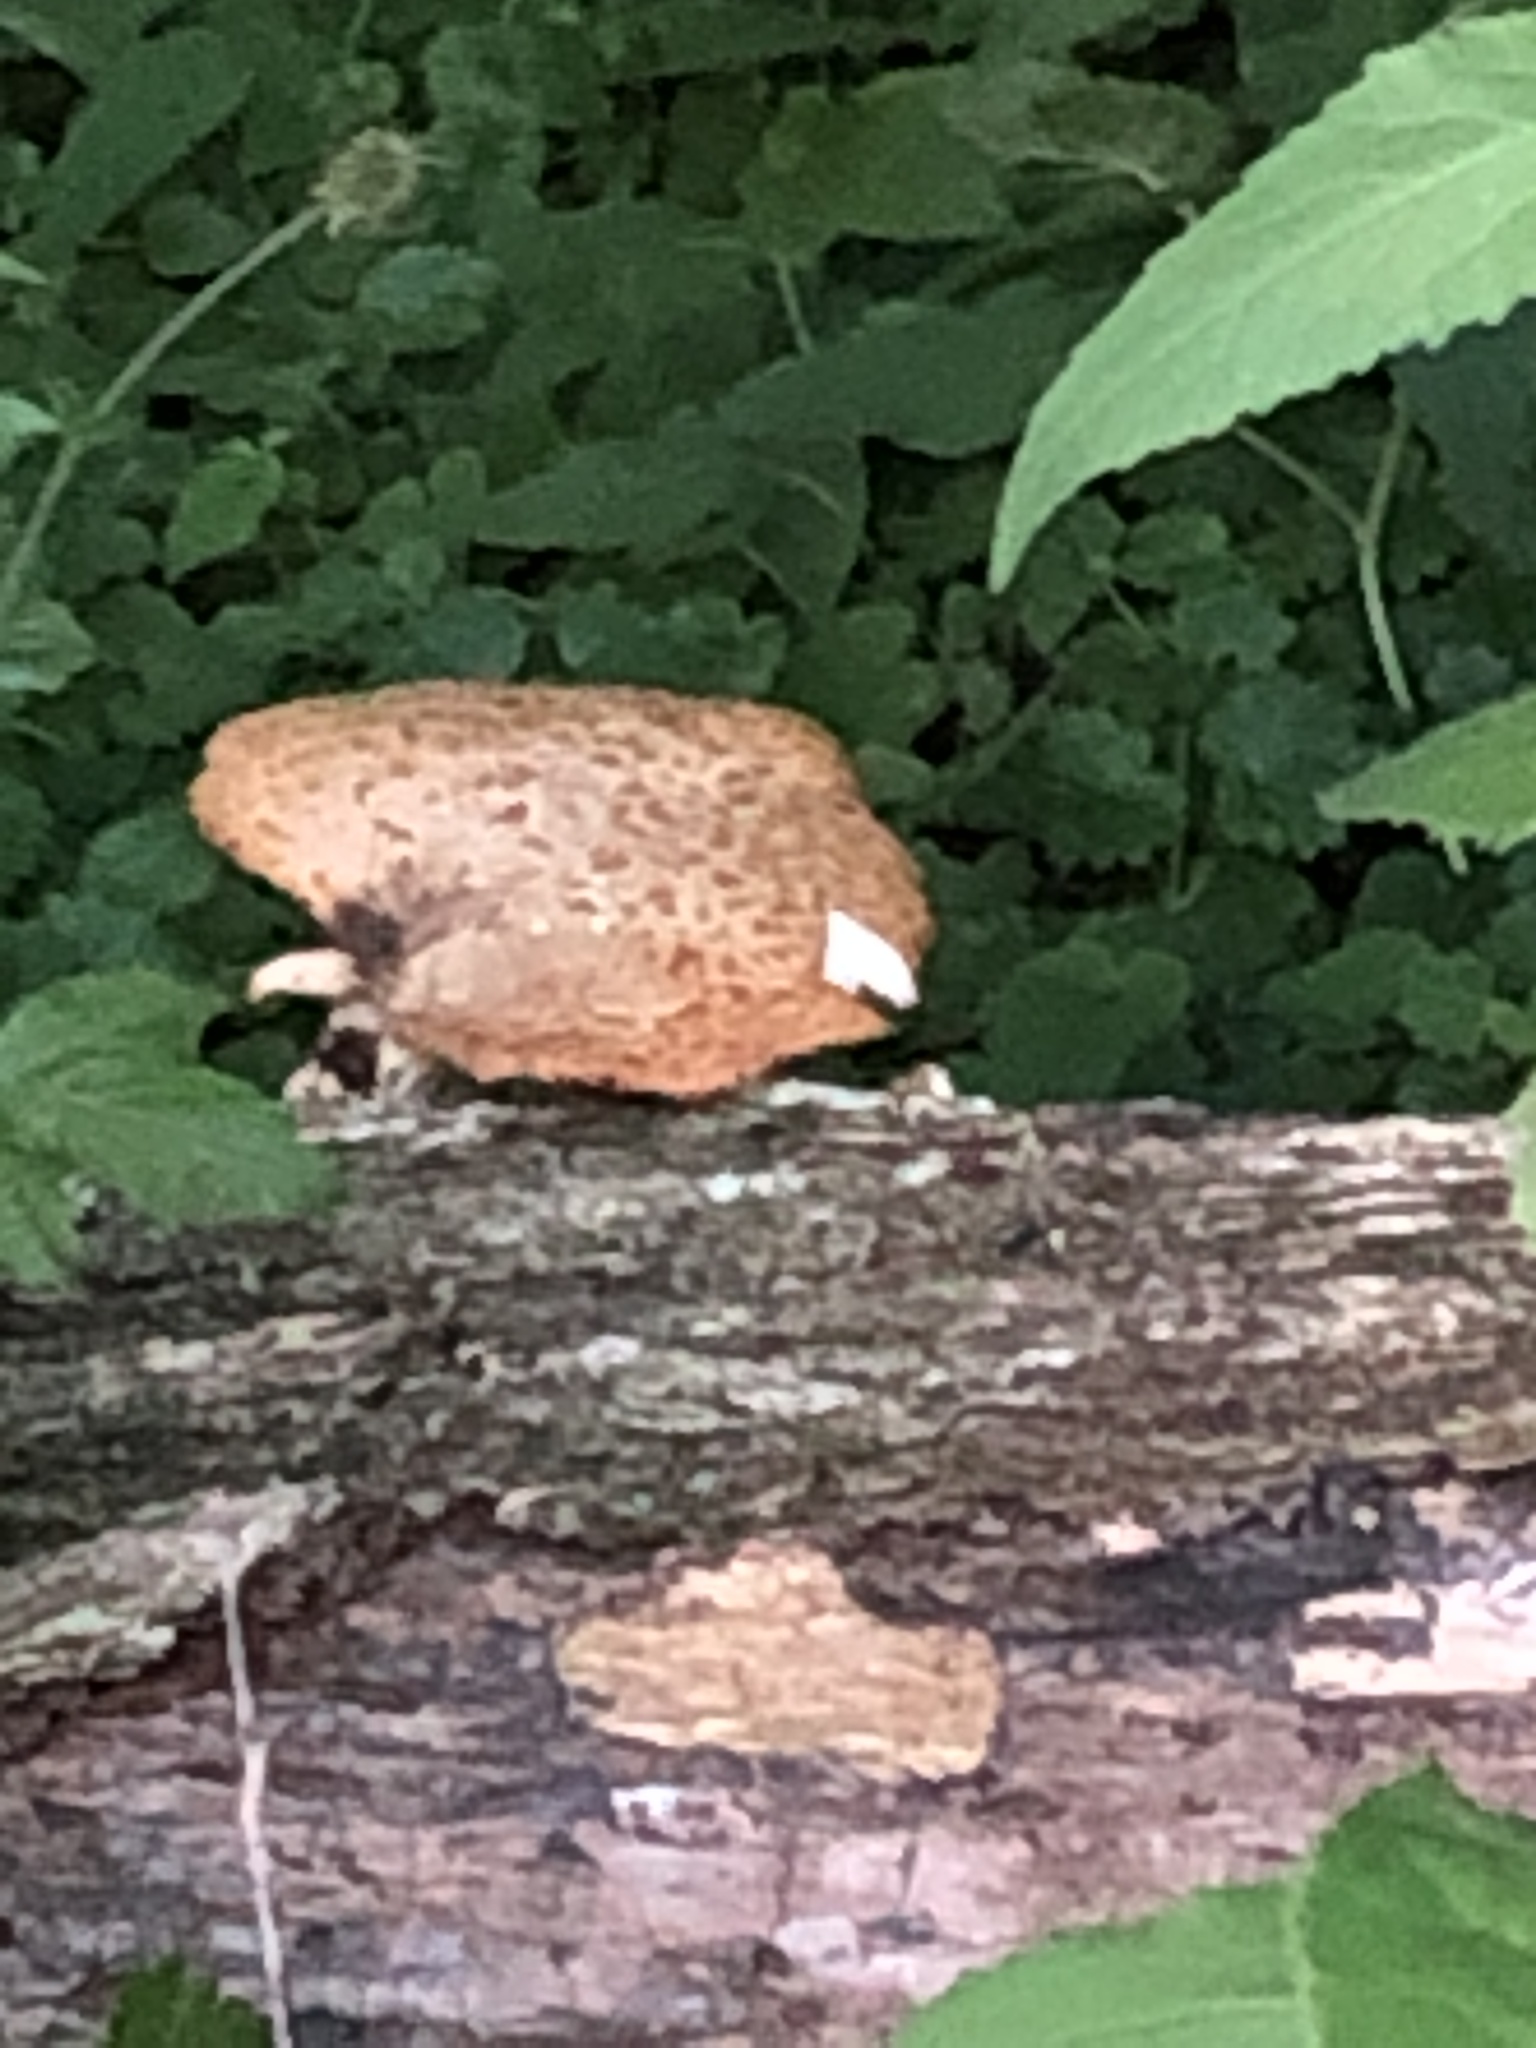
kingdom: Fungi
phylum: Basidiomycota
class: Agaricomycetes
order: Polyporales
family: Polyporaceae
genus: Cerioporus
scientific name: Cerioporus squamosus
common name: Dryad's saddle
